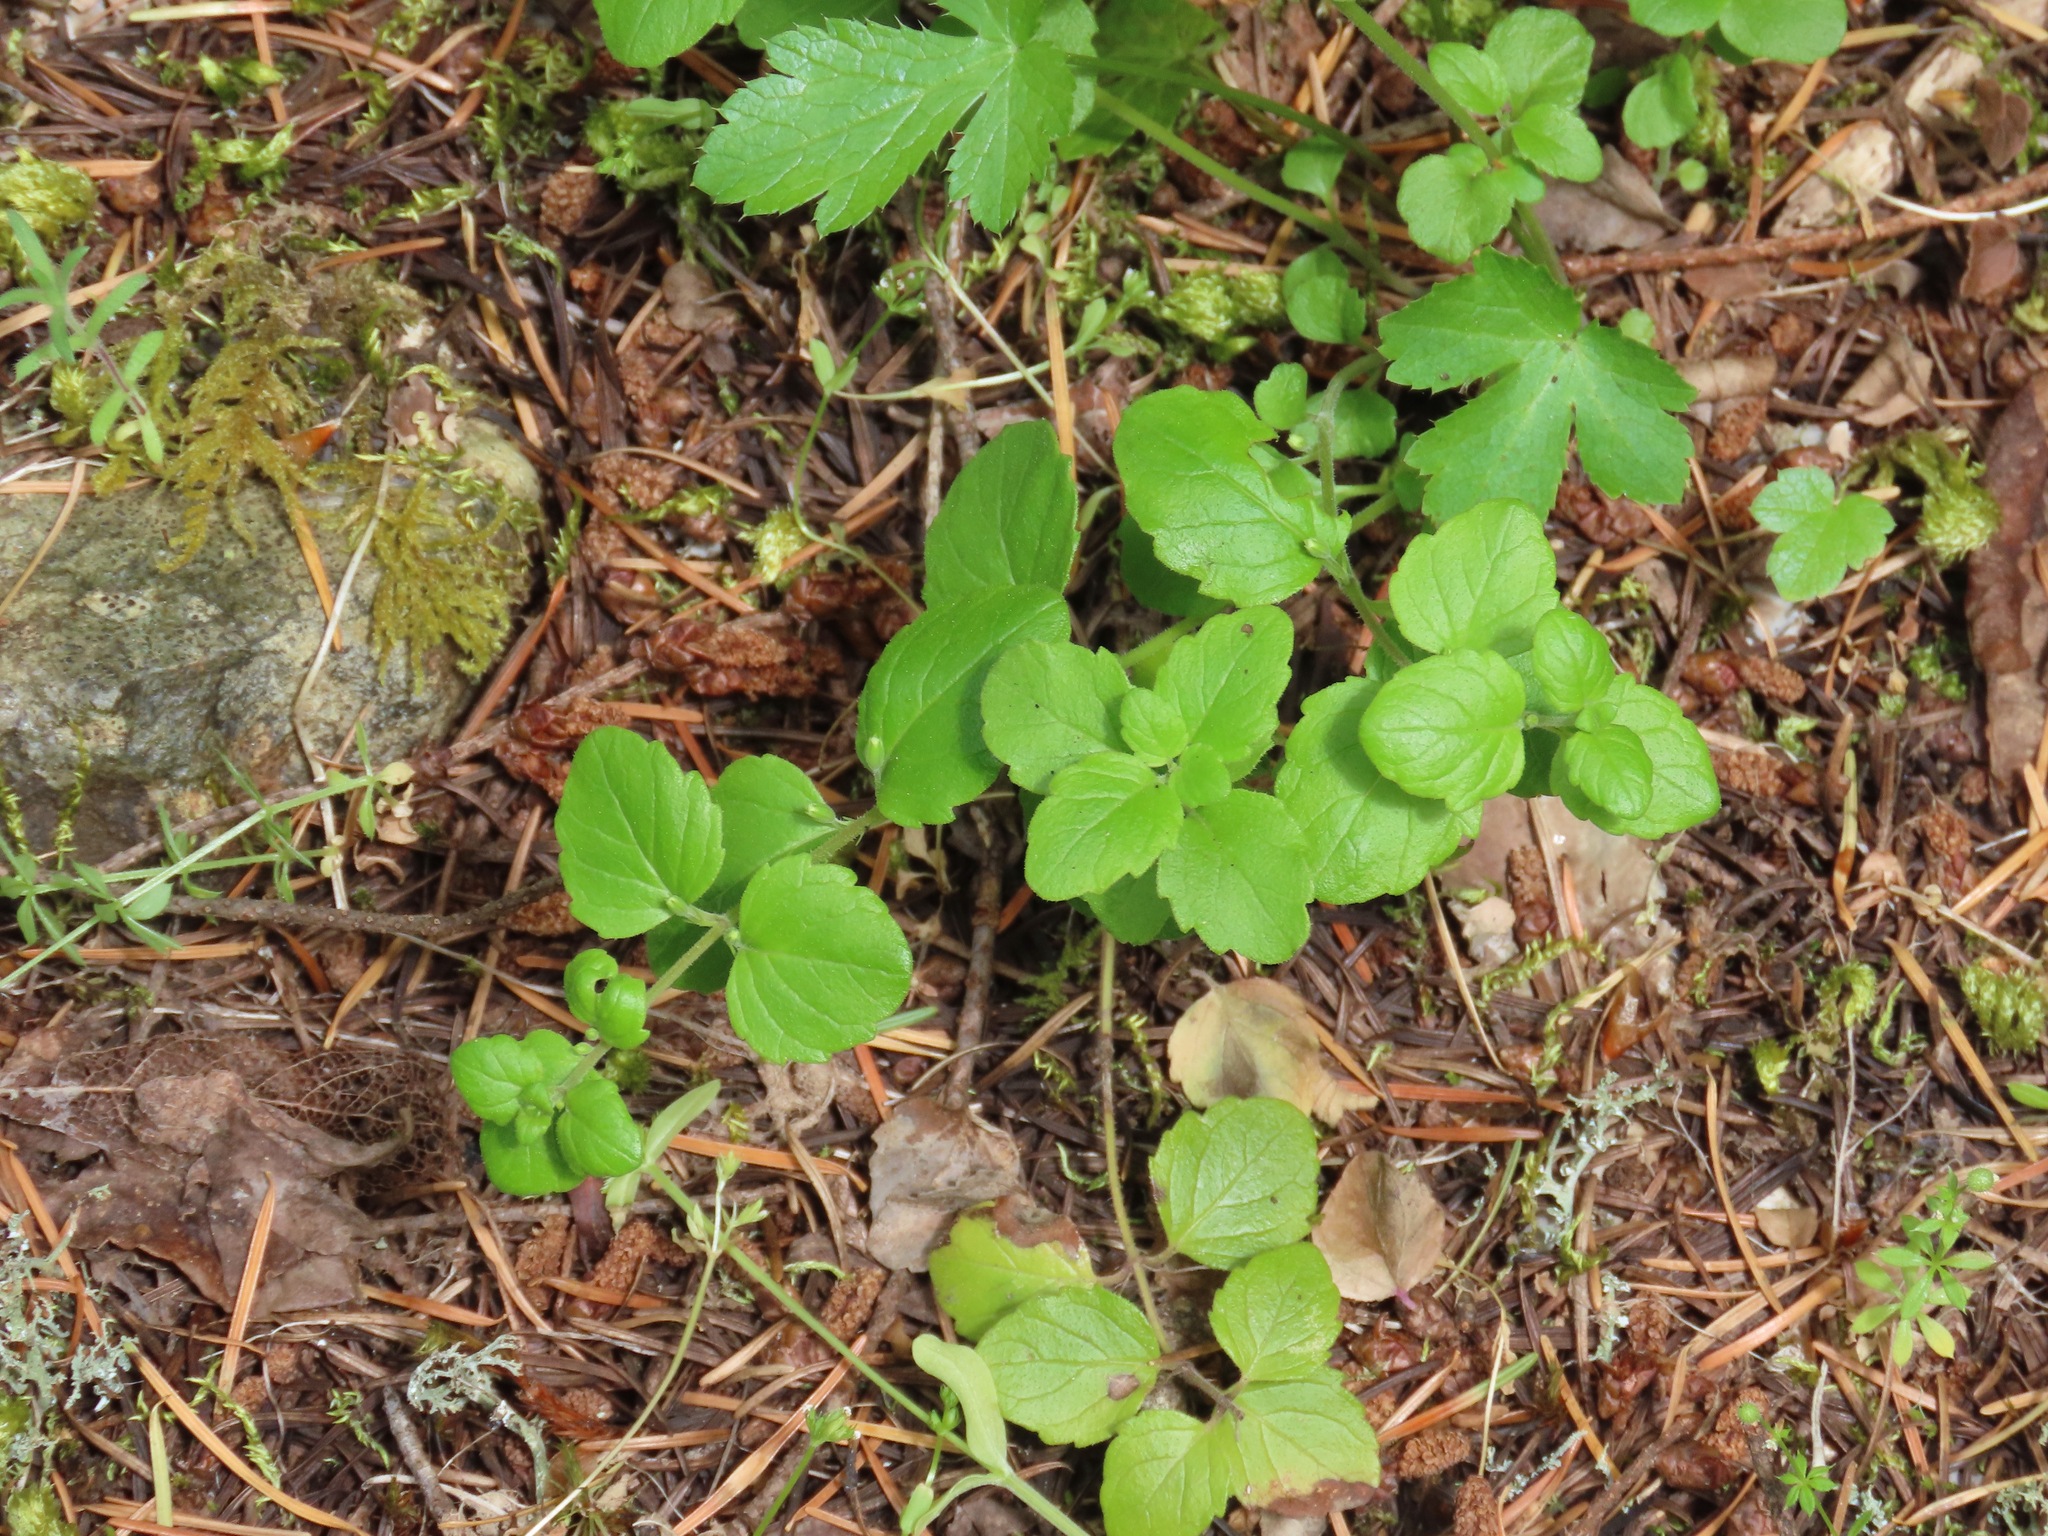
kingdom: Plantae
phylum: Tracheophyta
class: Magnoliopsida
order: Lamiales
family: Lamiaceae
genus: Micromeria
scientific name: Micromeria douglasii
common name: Yerba buena
